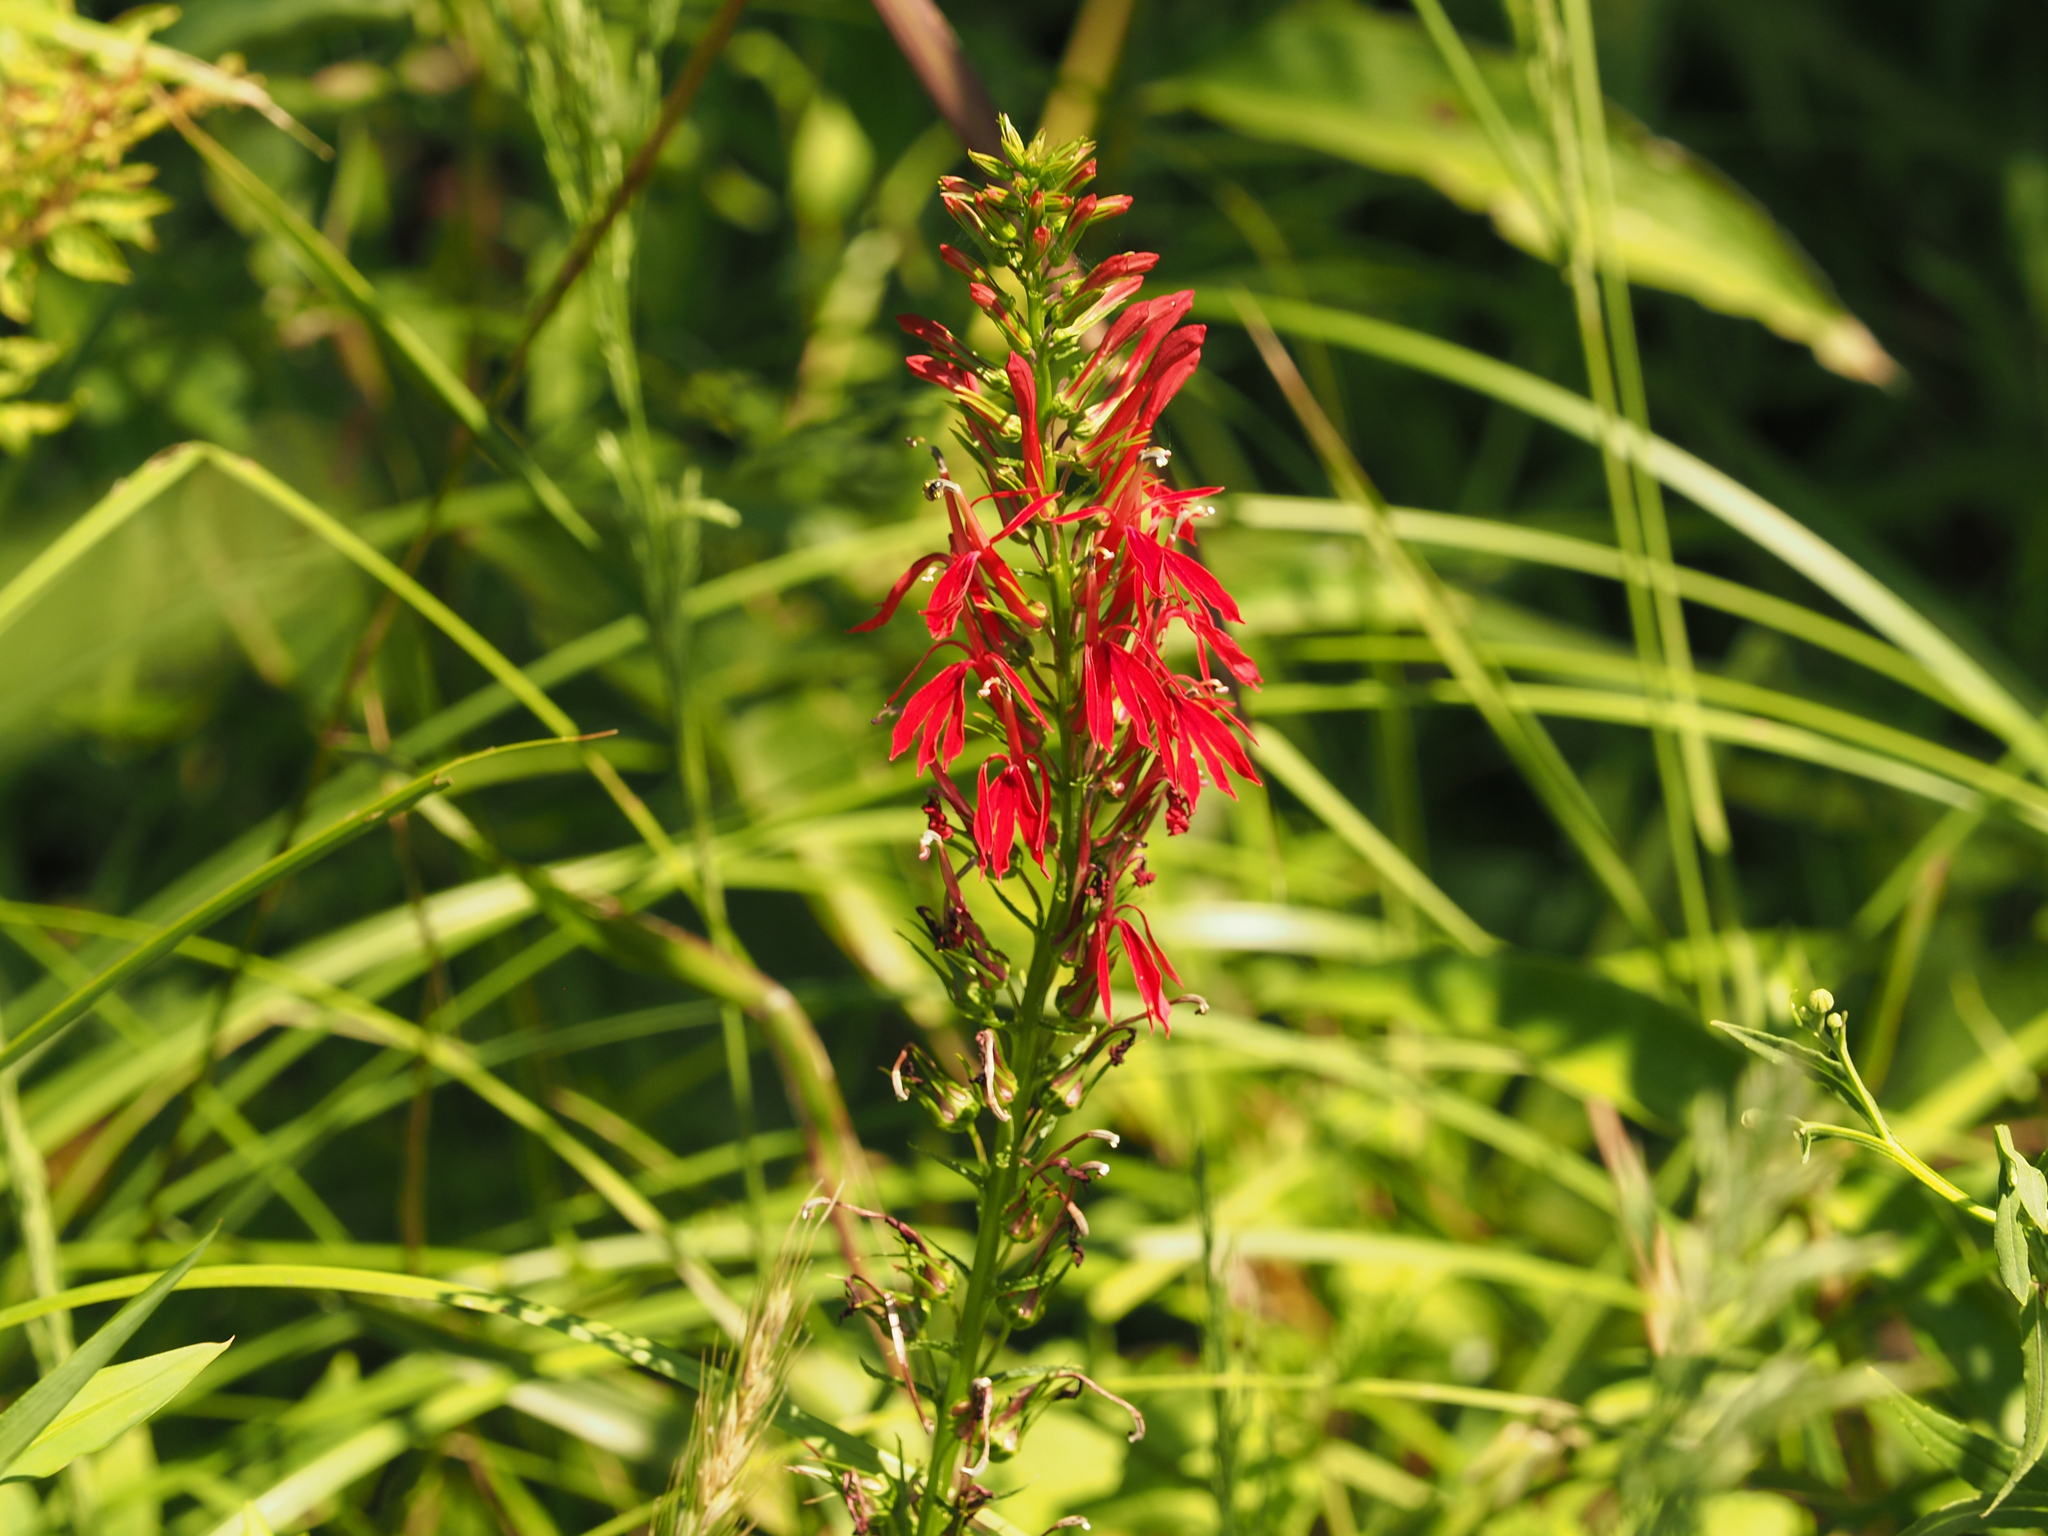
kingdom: Plantae
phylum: Tracheophyta
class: Magnoliopsida
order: Asterales
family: Campanulaceae
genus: Lobelia
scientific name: Lobelia cardinalis
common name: Cardinal flower
